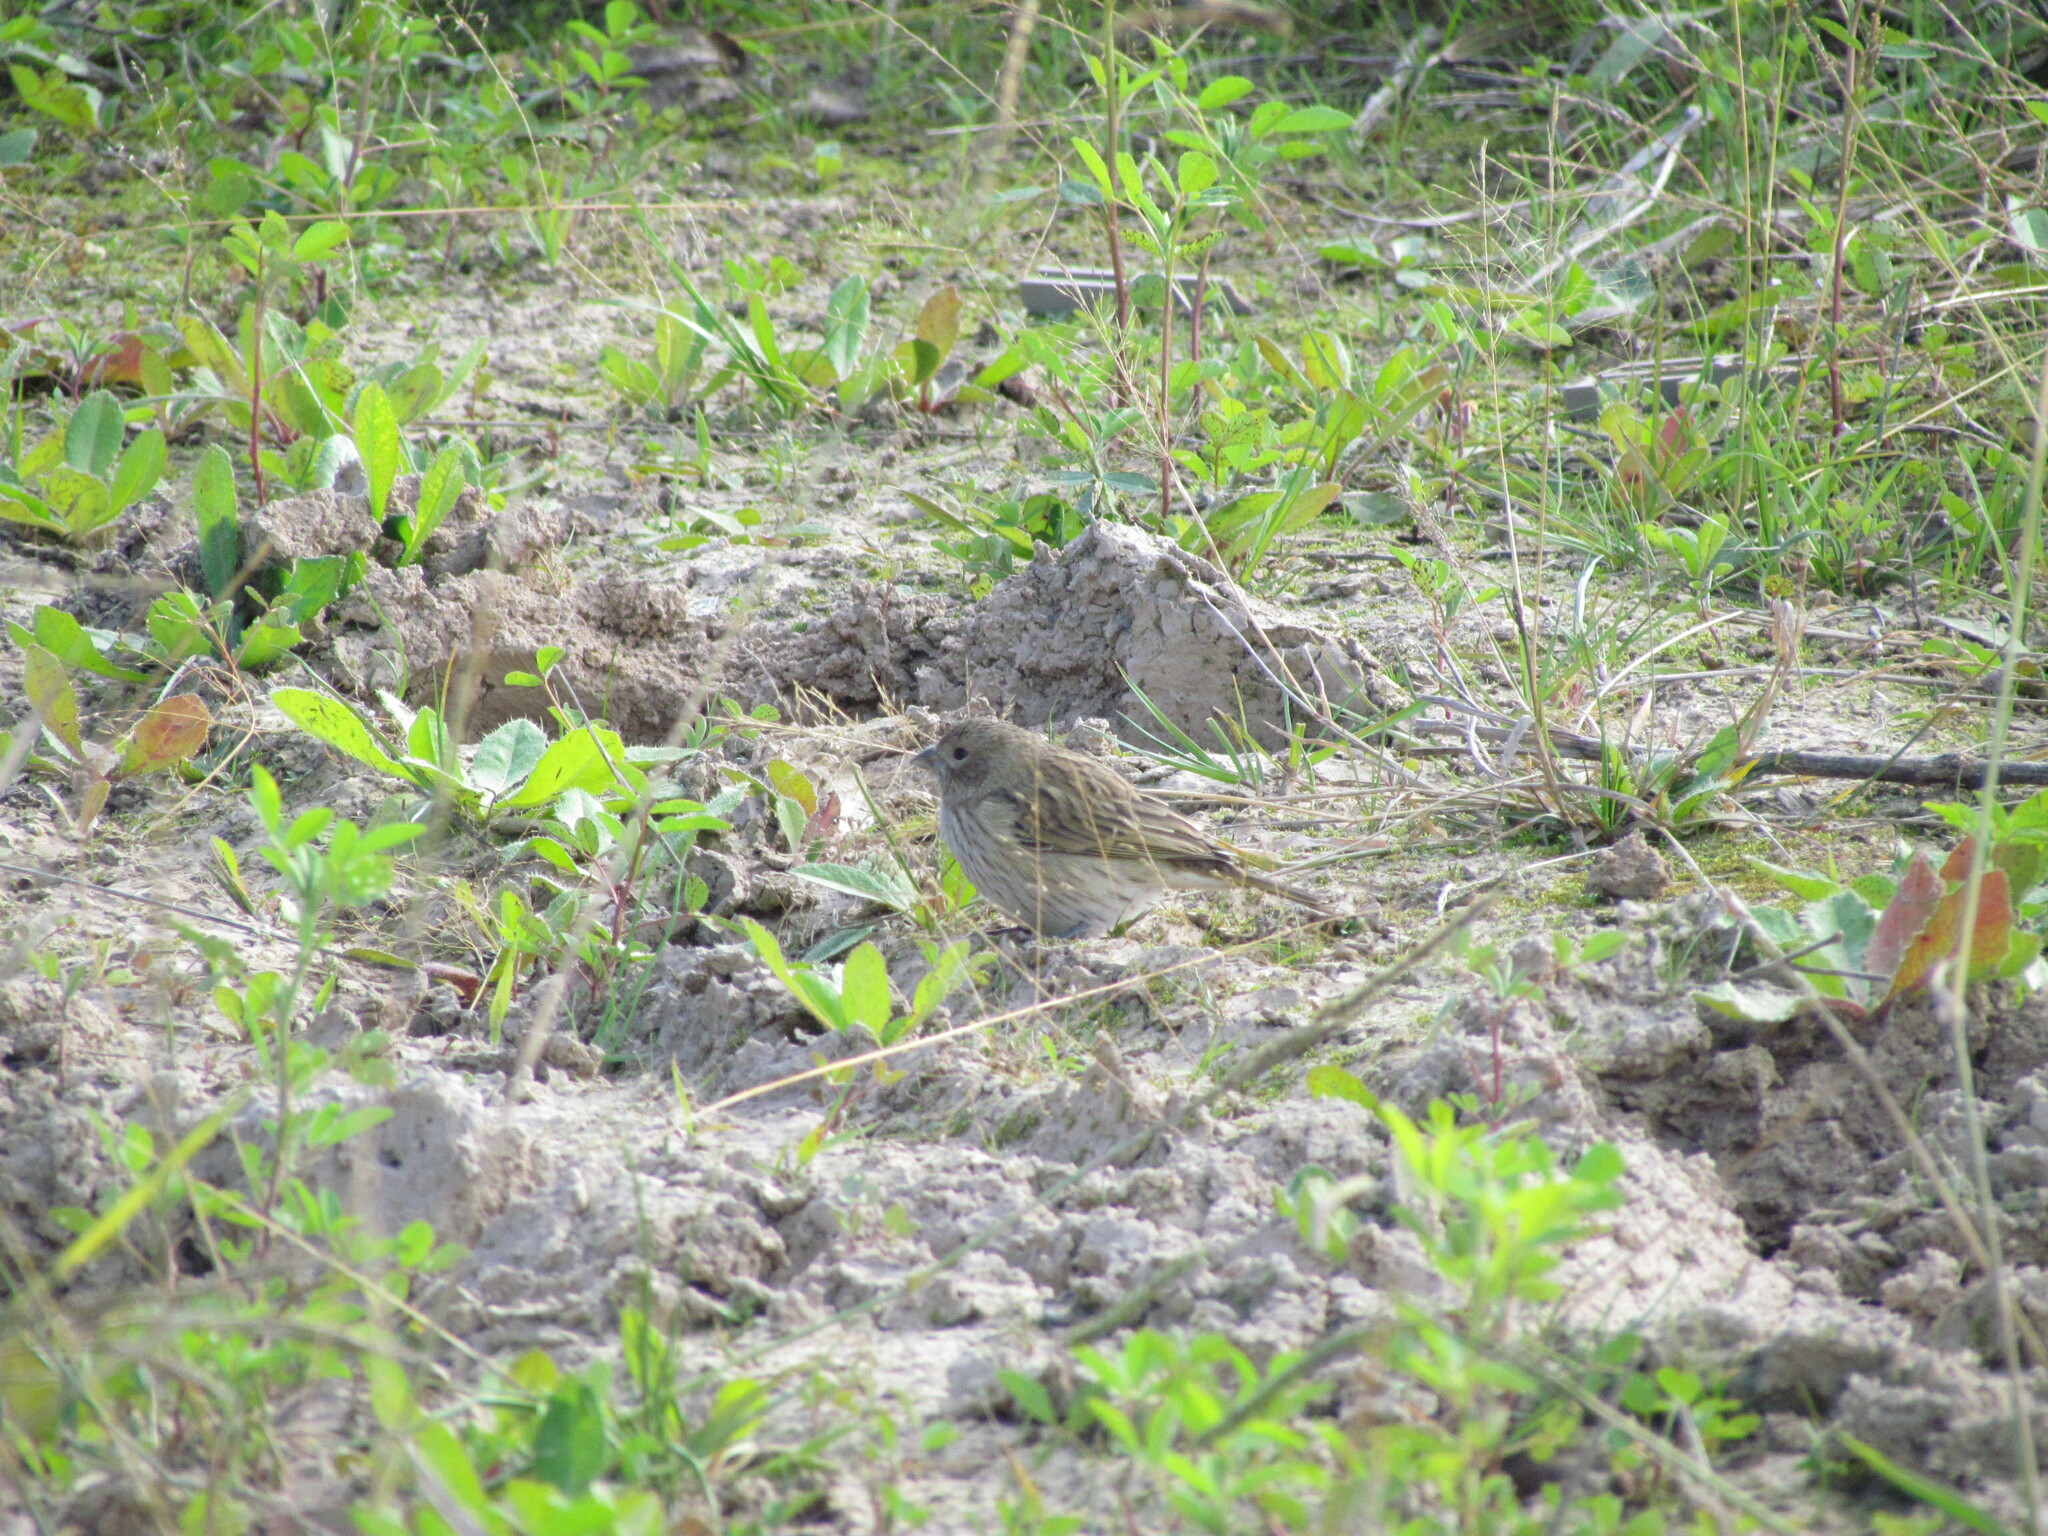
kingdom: Animalia
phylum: Chordata
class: Aves
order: Passeriformes
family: Thraupidae
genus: Sicalis
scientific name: Sicalis flaveola
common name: Saffron finch
